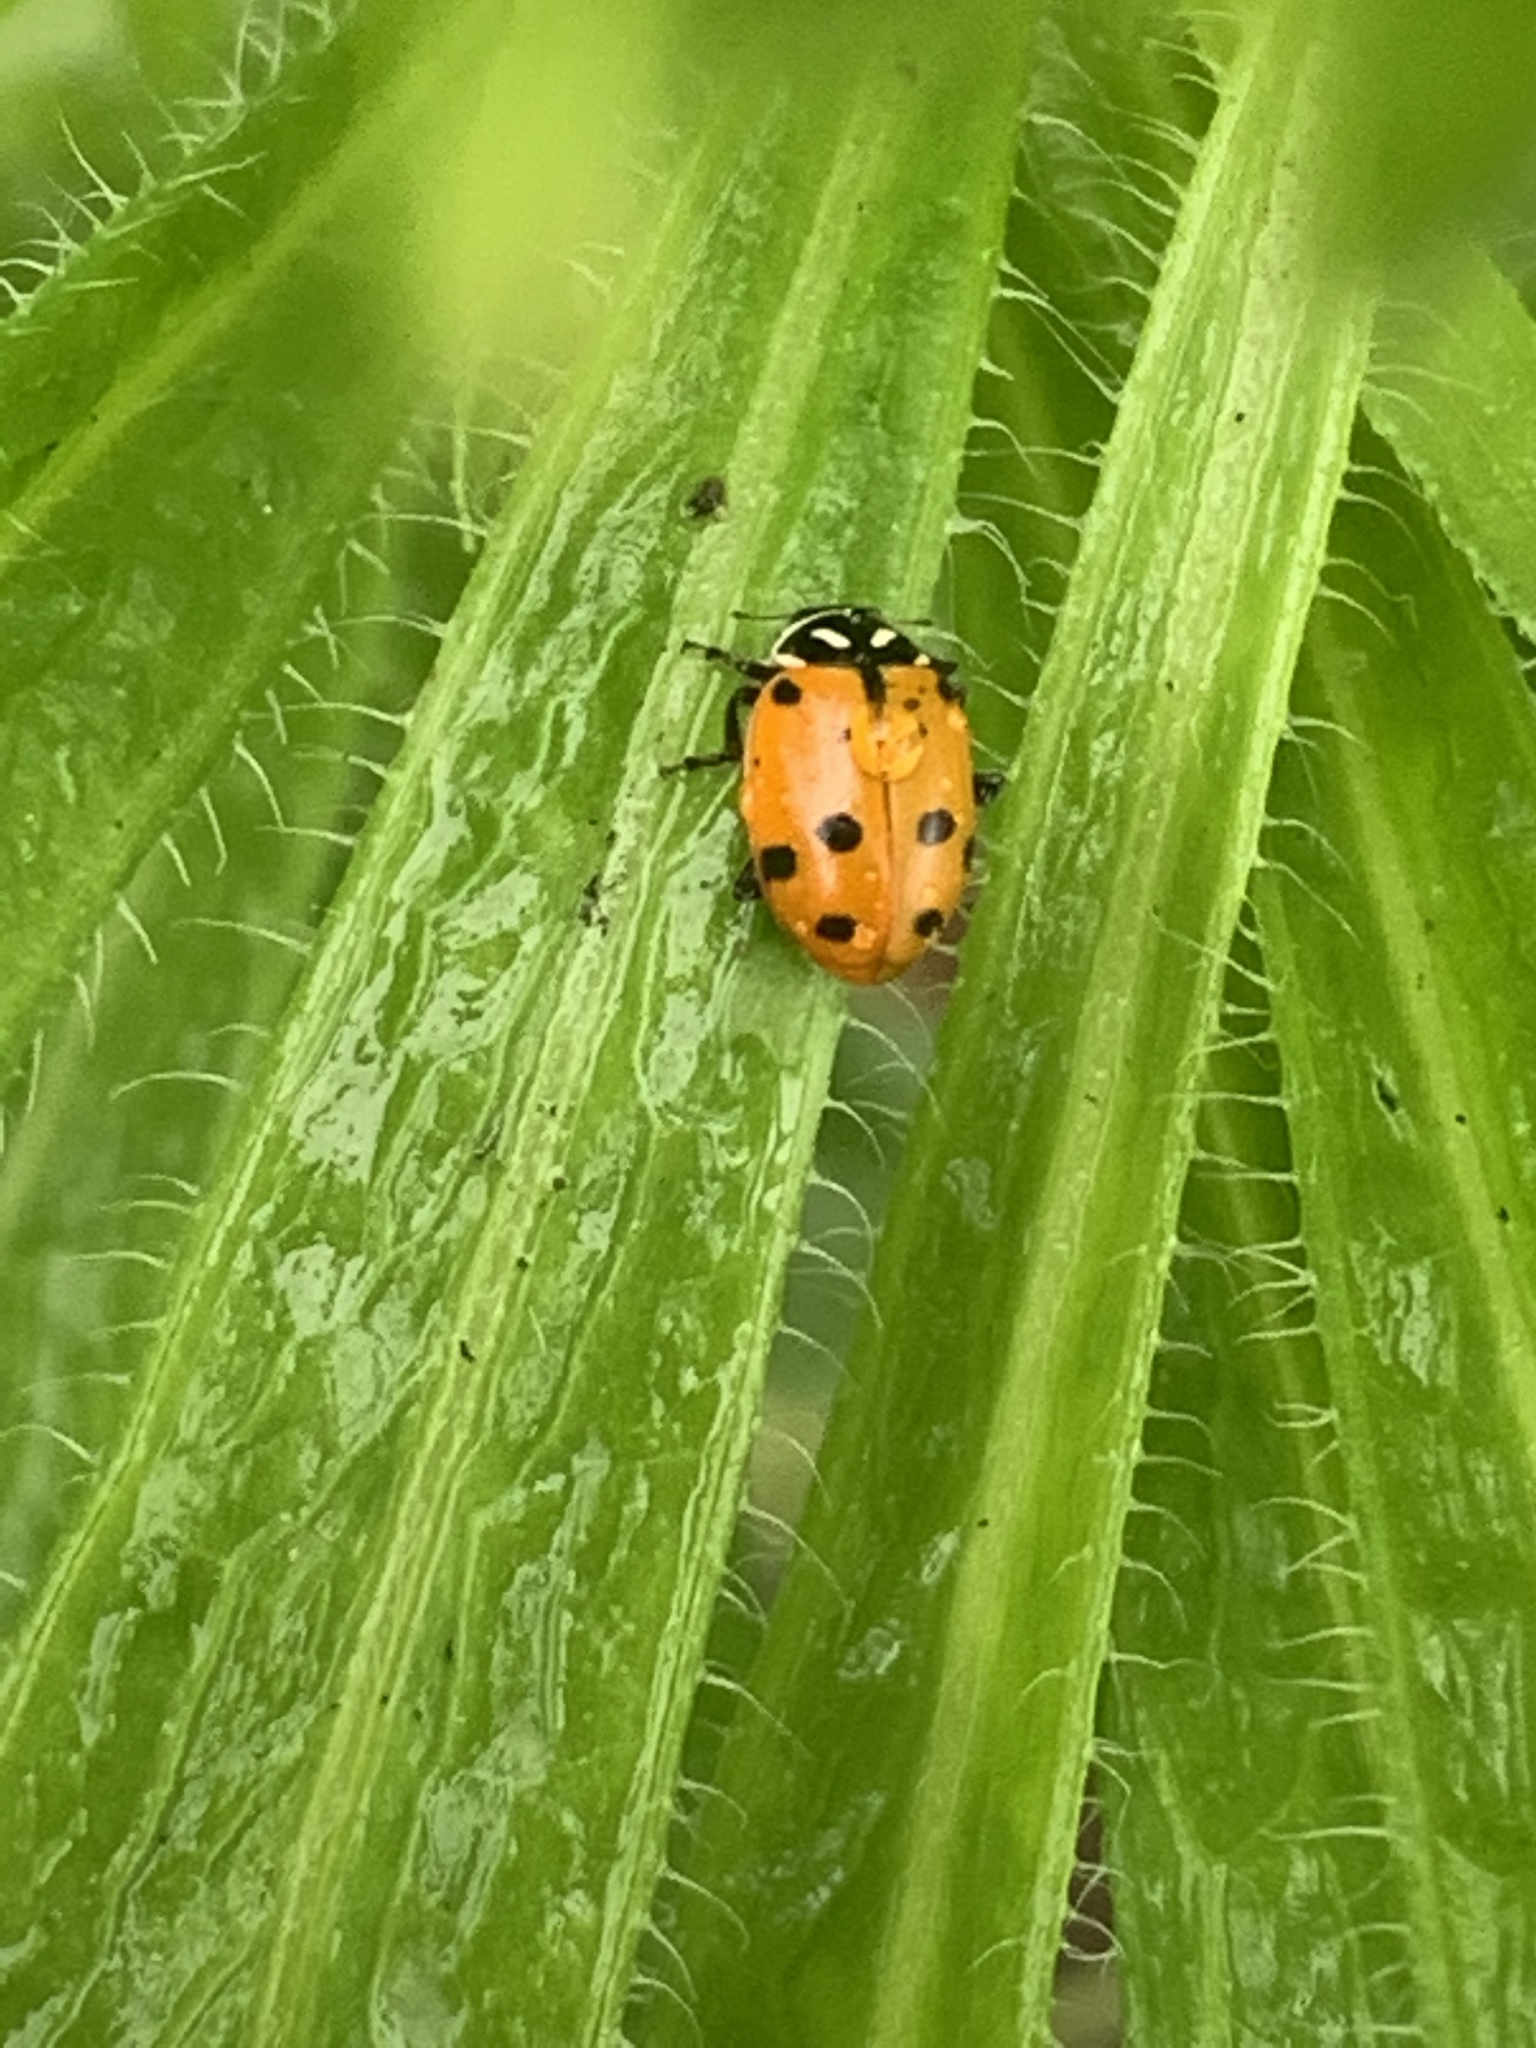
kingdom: Animalia
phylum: Arthropoda
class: Insecta
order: Coleoptera
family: Coccinellidae
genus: Hippodamia
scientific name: Hippodamia convergens
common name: Convergent lady beetle
